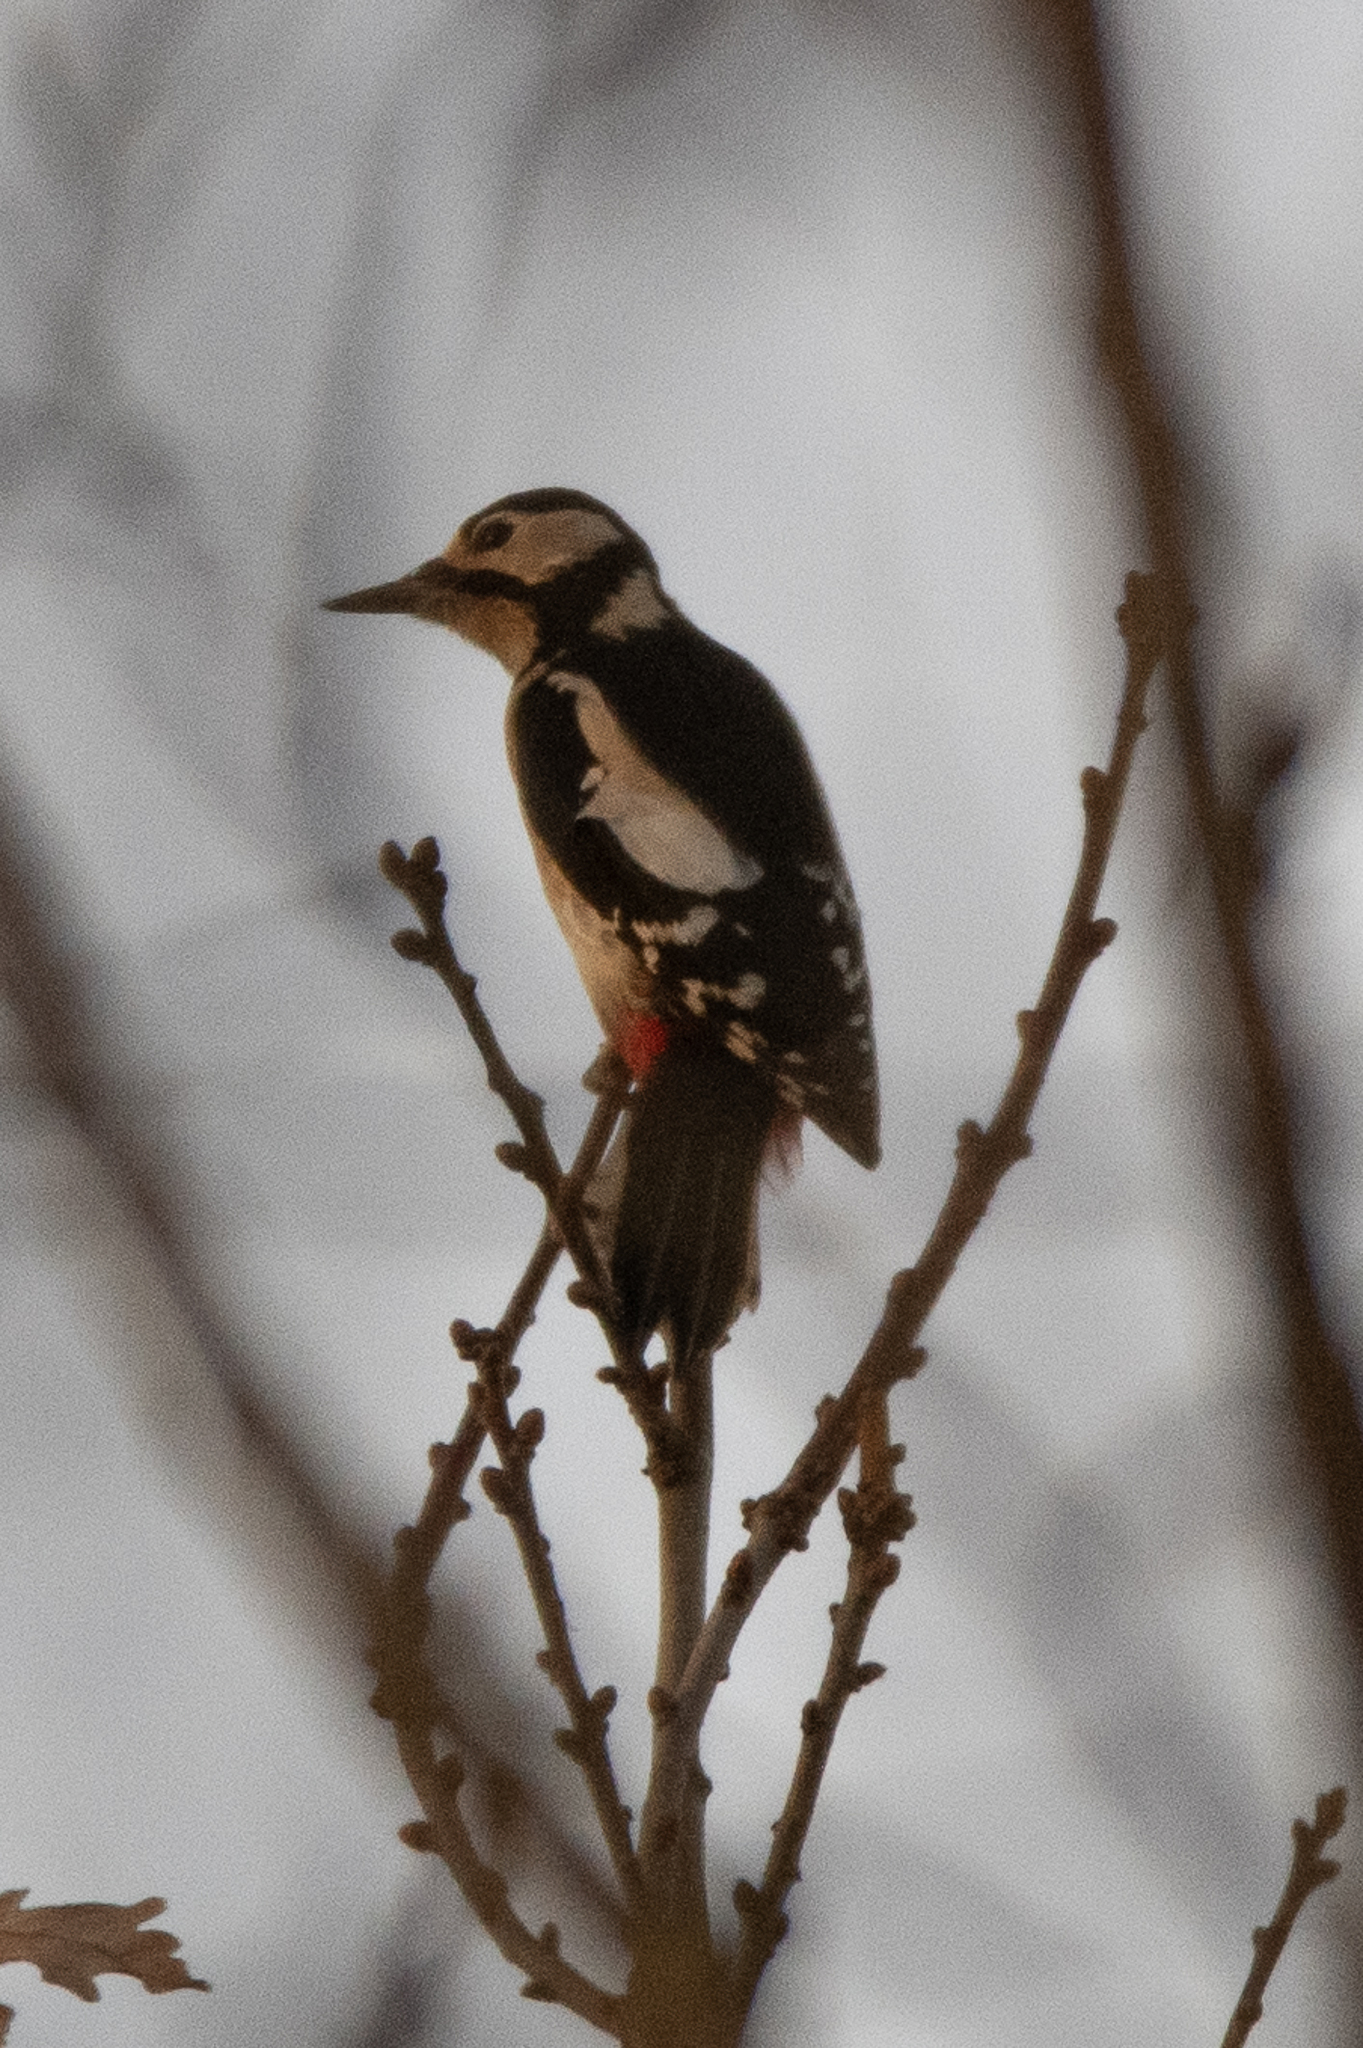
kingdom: Animalia
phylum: Chordata
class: Aves
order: Piciformes
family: Picidae
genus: Dendrocopos
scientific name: Dendrocopos major
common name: Great spotted woodpecker
